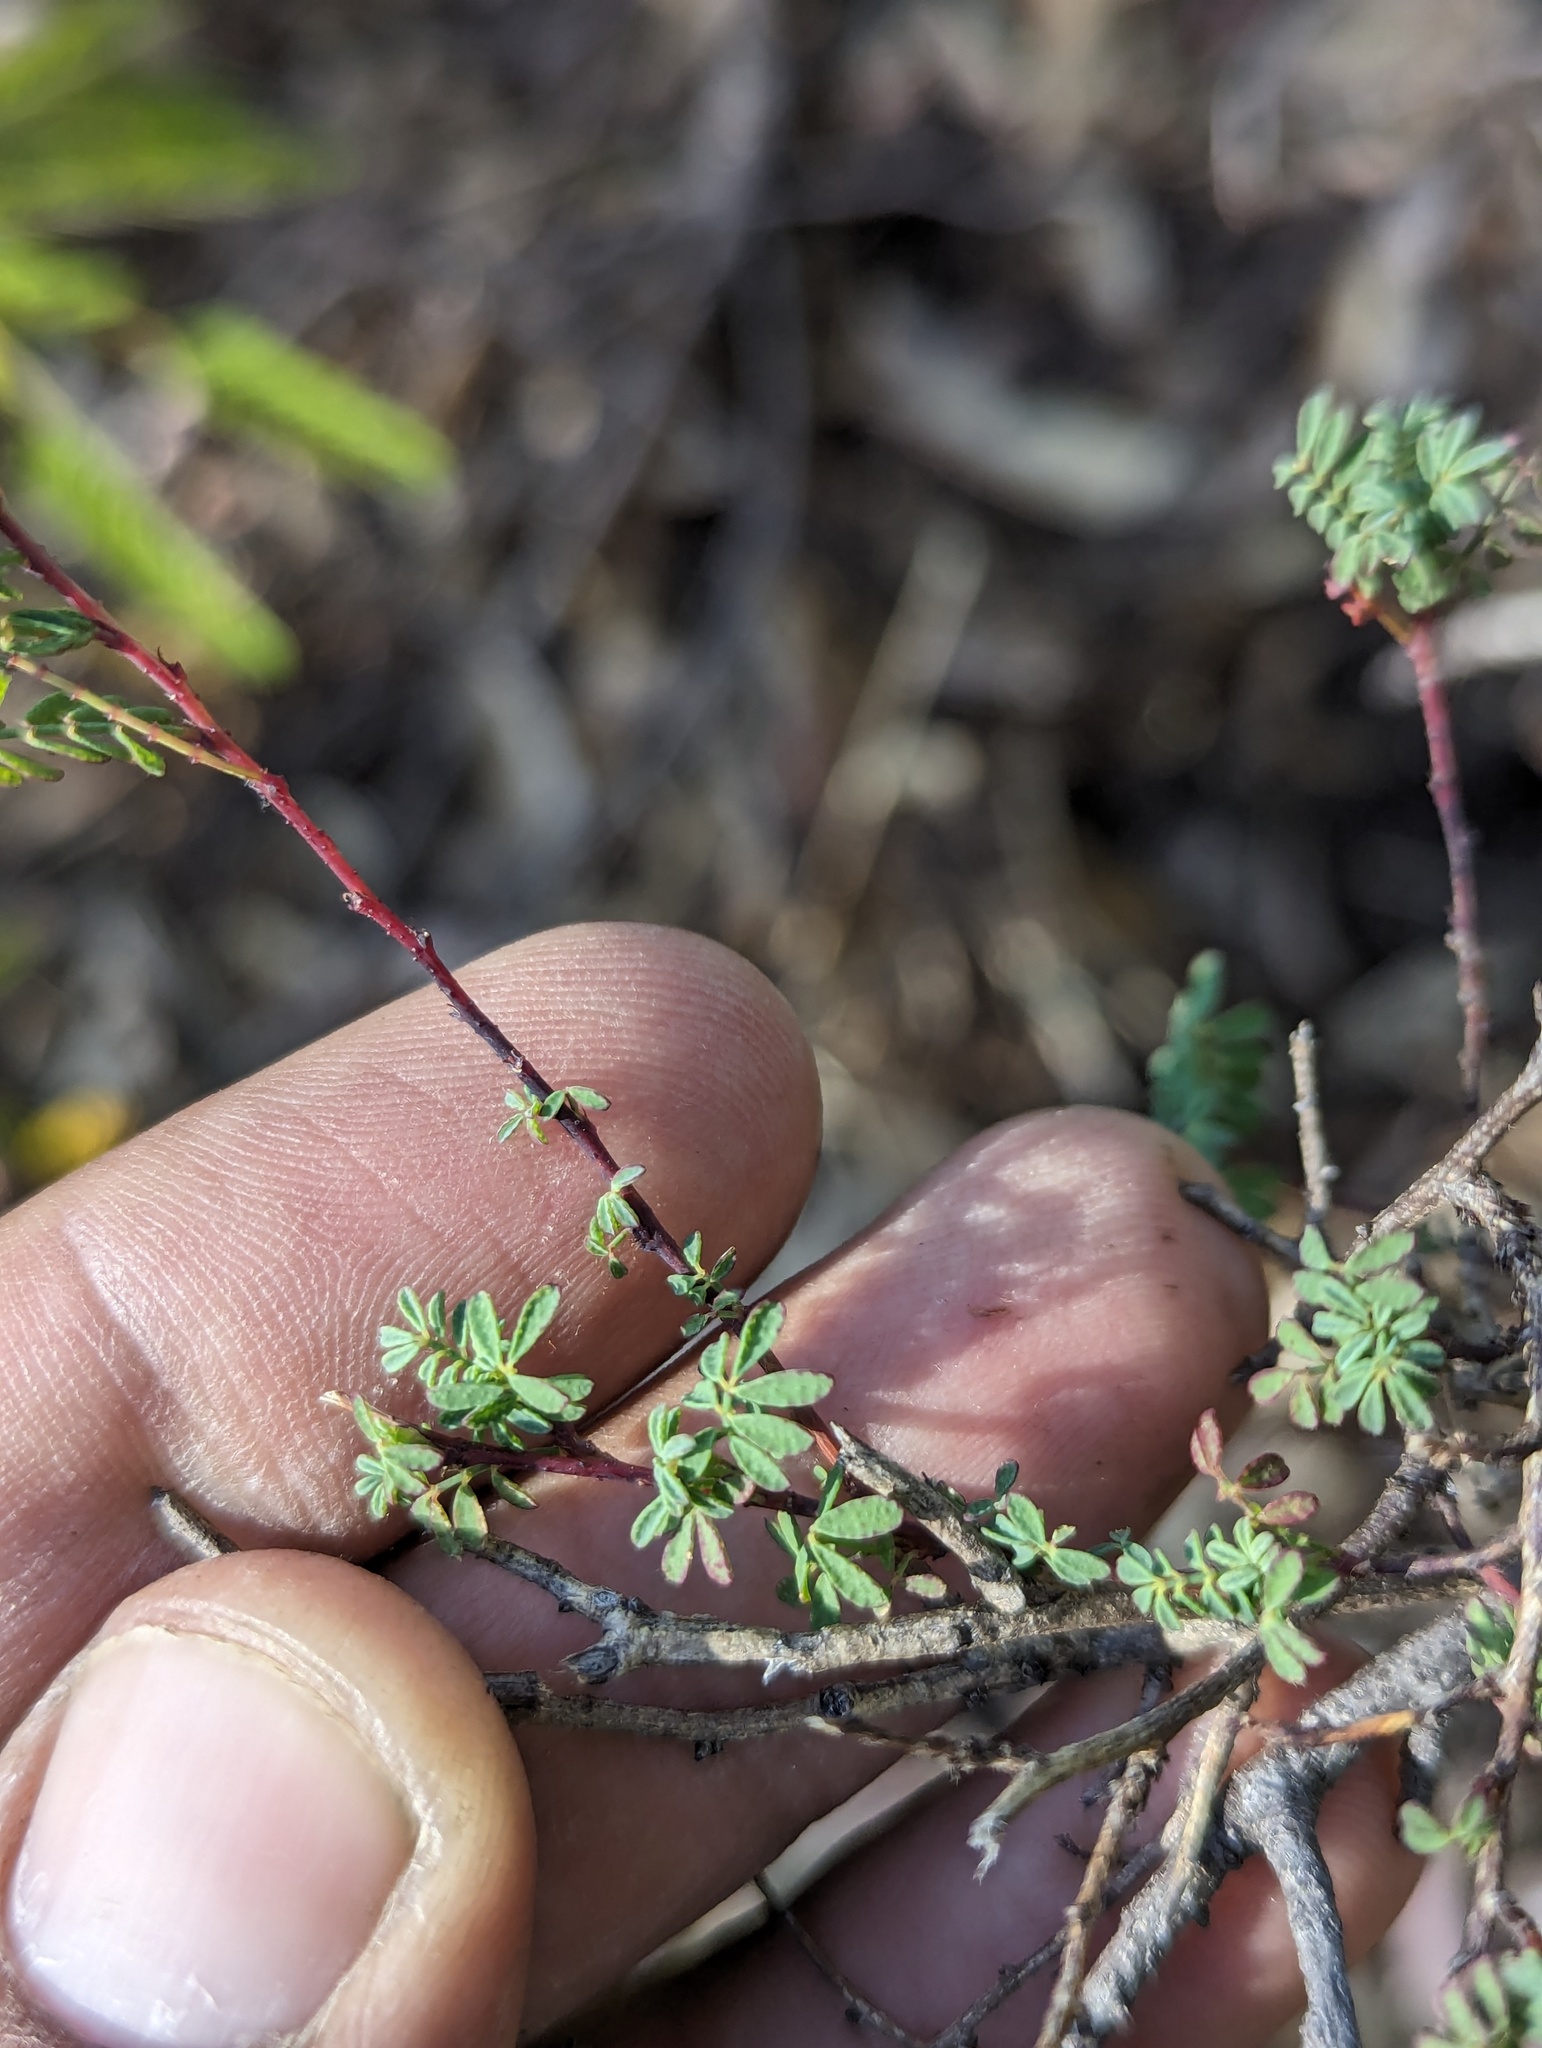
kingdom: Plantae
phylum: Tracheophyta
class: Magnoliopsida
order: Fabales
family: Fabaceae
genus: Dalea
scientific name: Dalea trochilina
